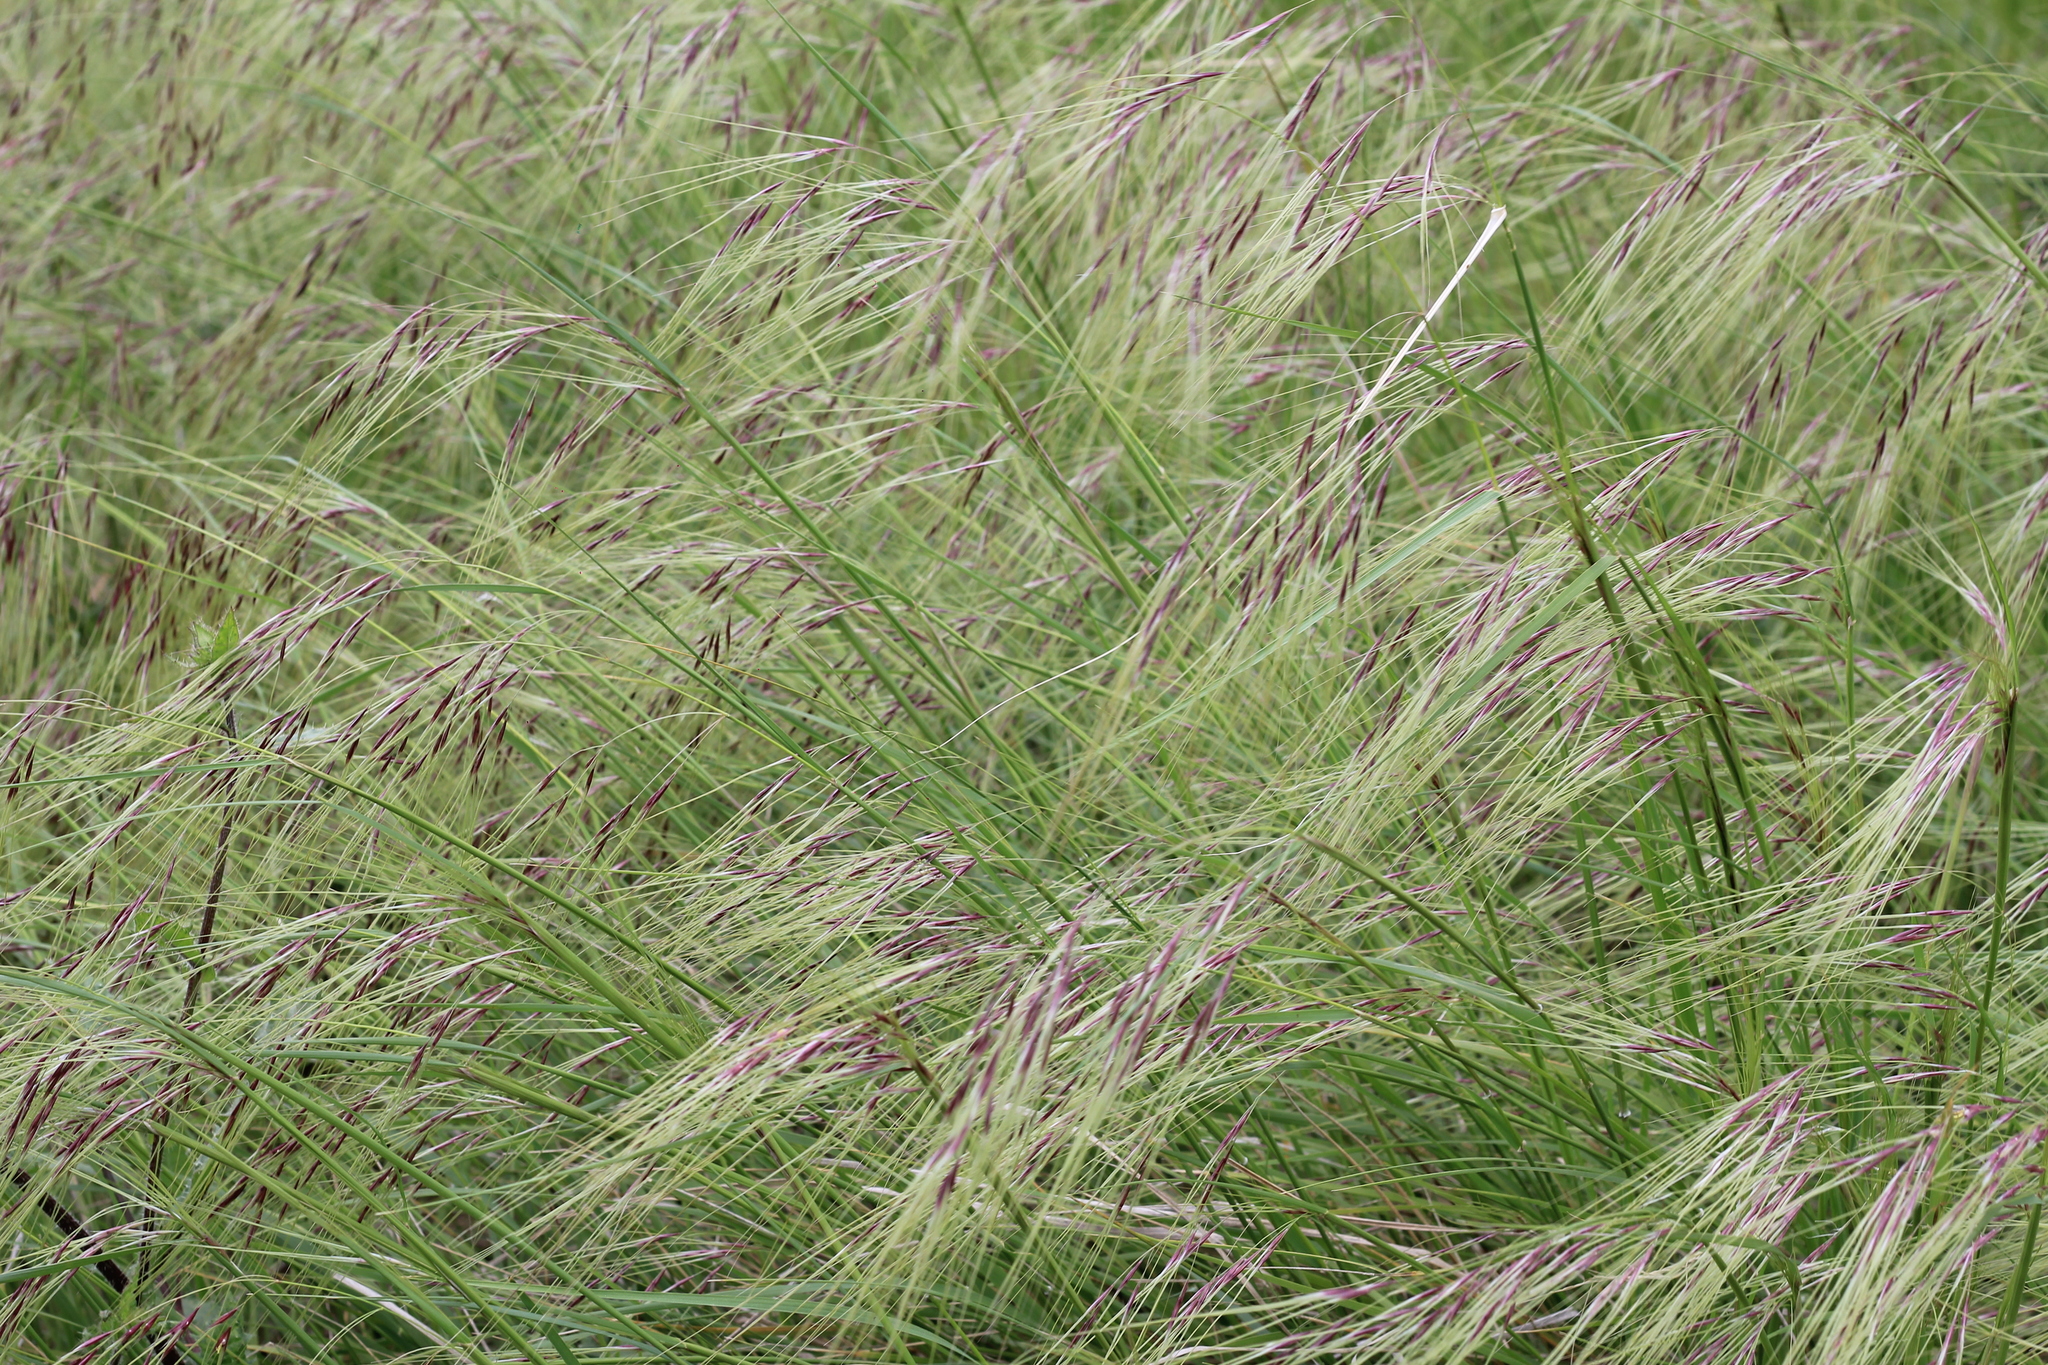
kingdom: Plantae
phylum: Tracheophyta
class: Liliopsida
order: Poales
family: Poaceae
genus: Nassella
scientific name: Nassella neesiana
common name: American needle-grass
